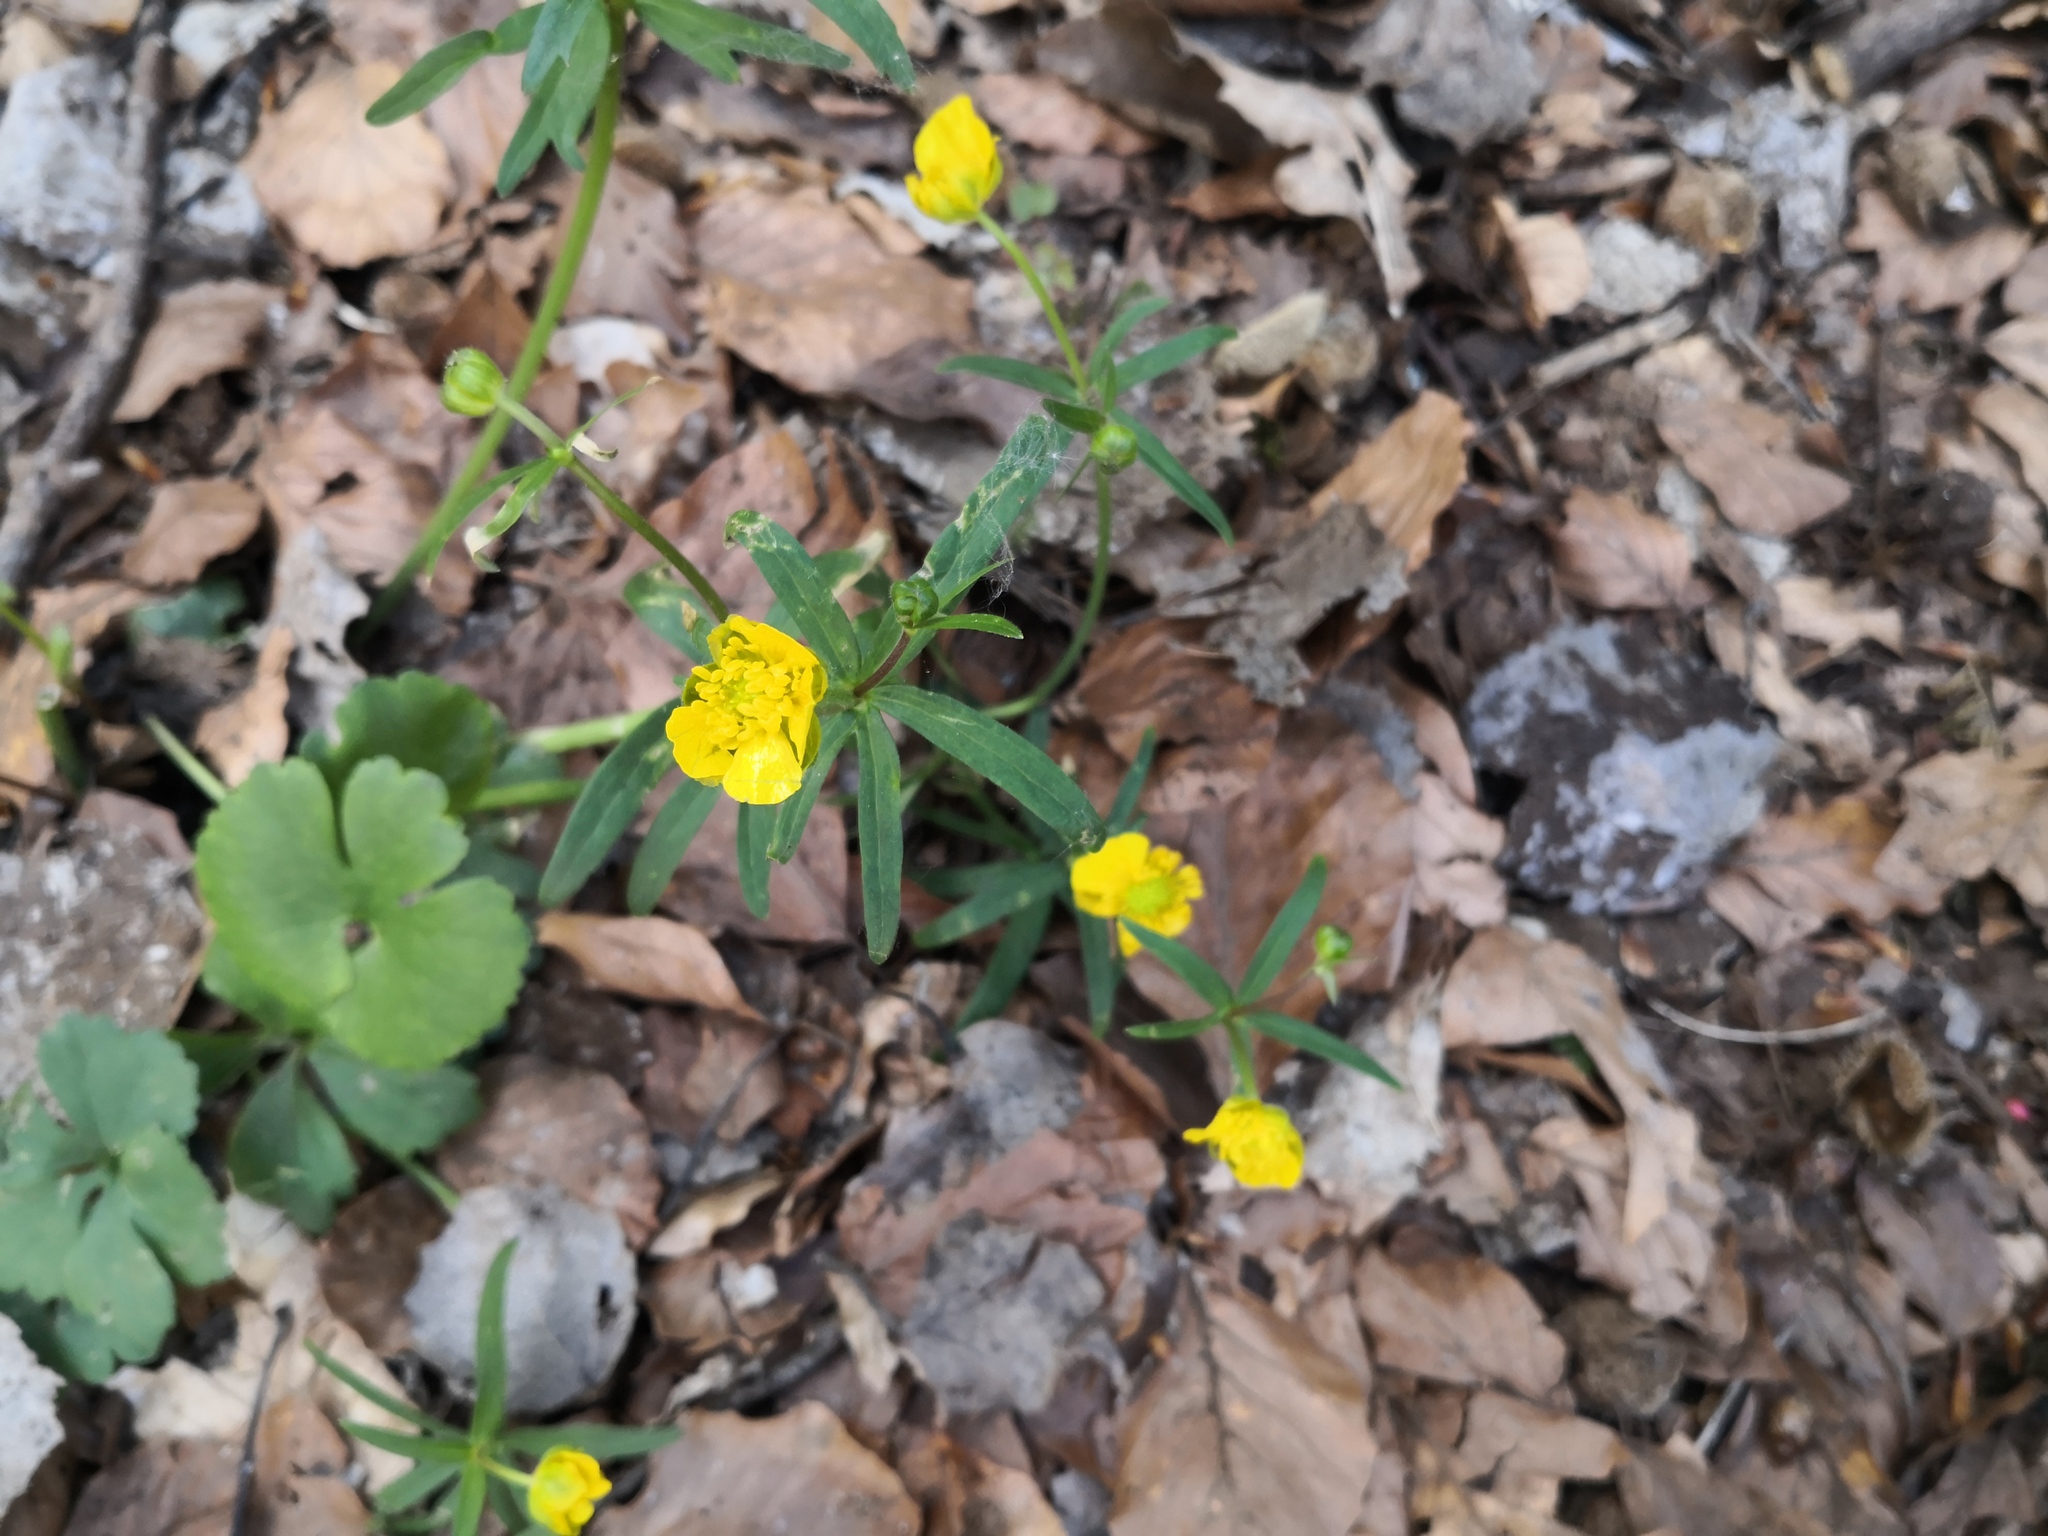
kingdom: Plantae
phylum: Tracheophyta
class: Magnoliopsida
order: Ranunculales
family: Ranunculaceae
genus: Ranunculus
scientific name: Ranunculus auricomus
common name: Goldilocks buttercup
